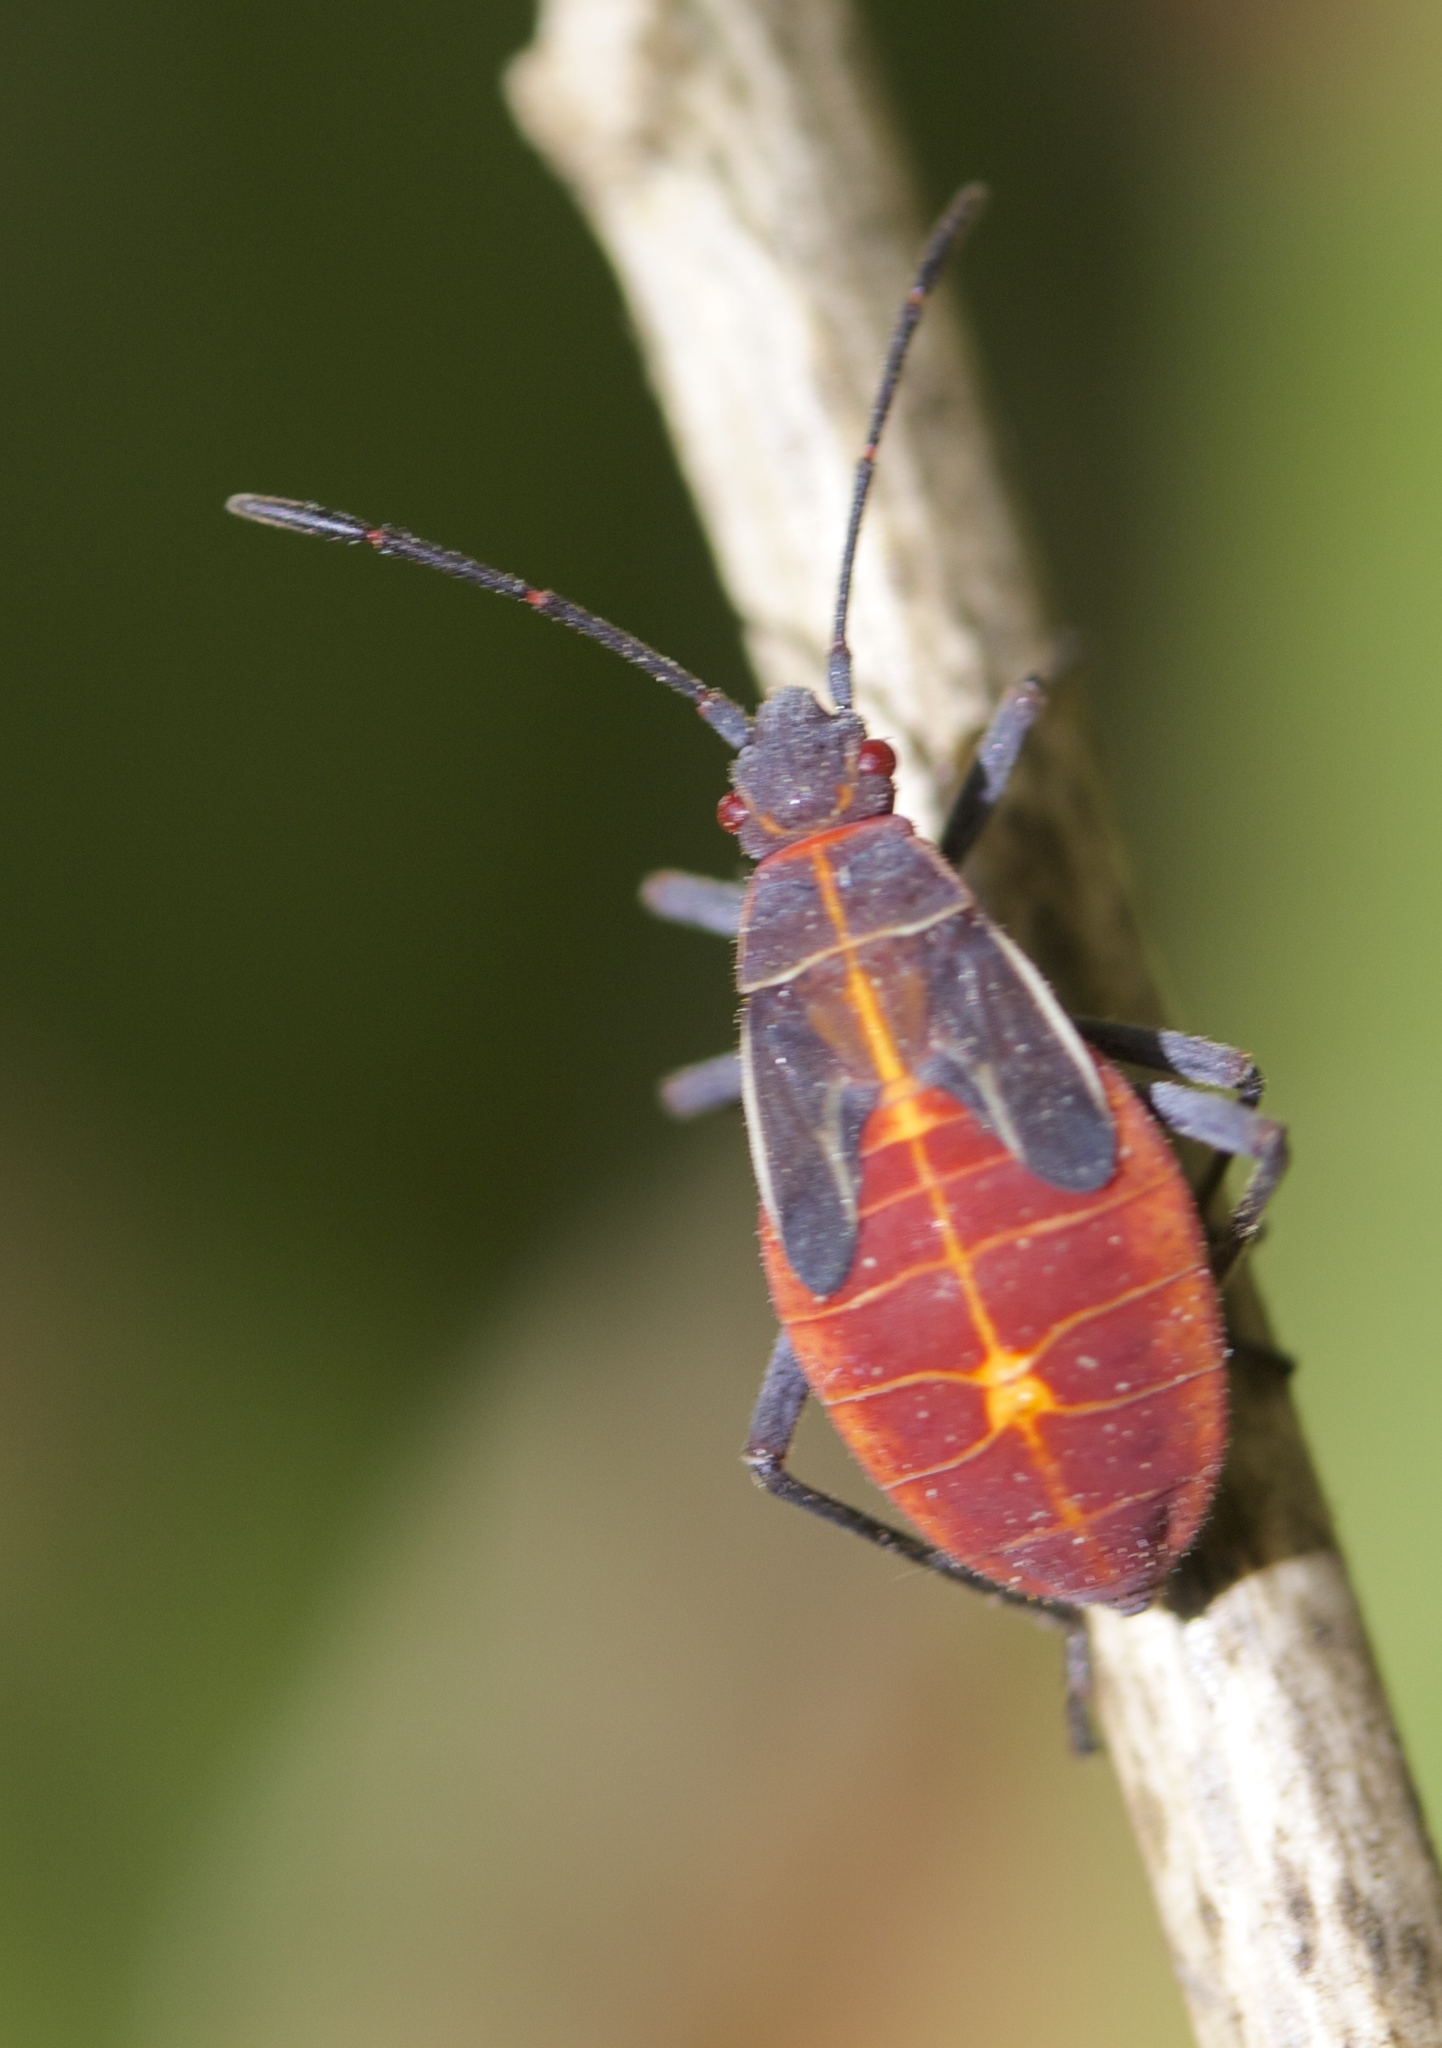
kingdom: Animalia
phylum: Arthropoda
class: Insecta
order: Hemiptera
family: Rhopalidae
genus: Boisea
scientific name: Boisea rubrolineata
